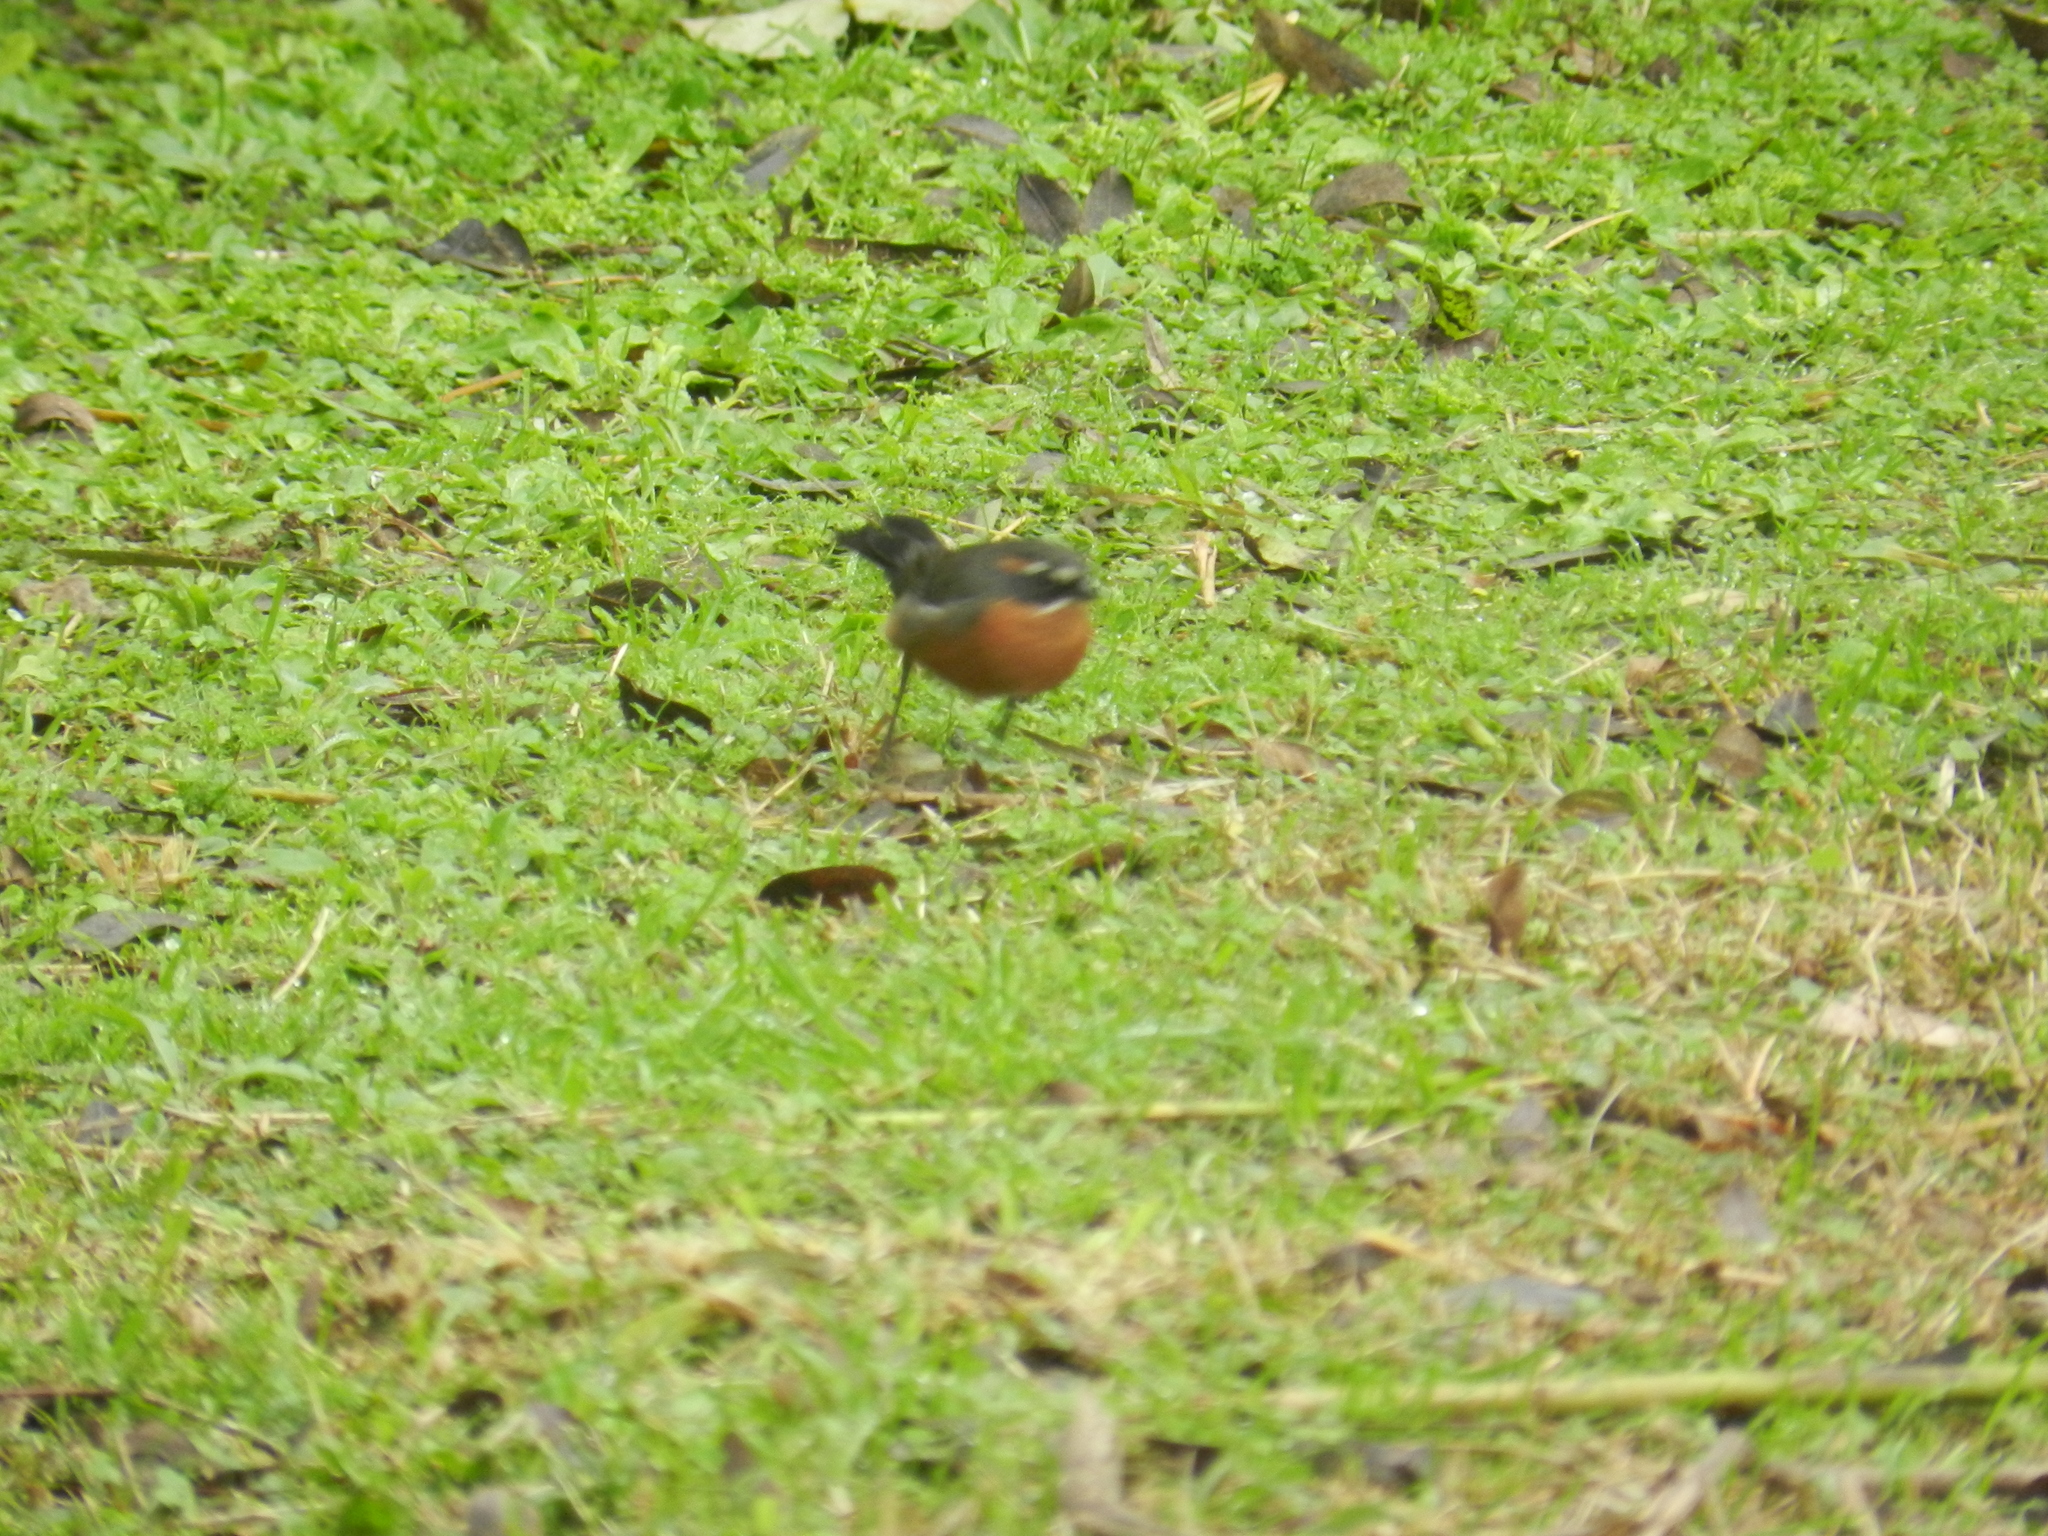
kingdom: Animalia
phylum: Chordata
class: Aves
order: Passeriformes
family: Thraupidae
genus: Poospiza
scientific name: Poospiza nigrorufa
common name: Black-and-rufous warbling finch
